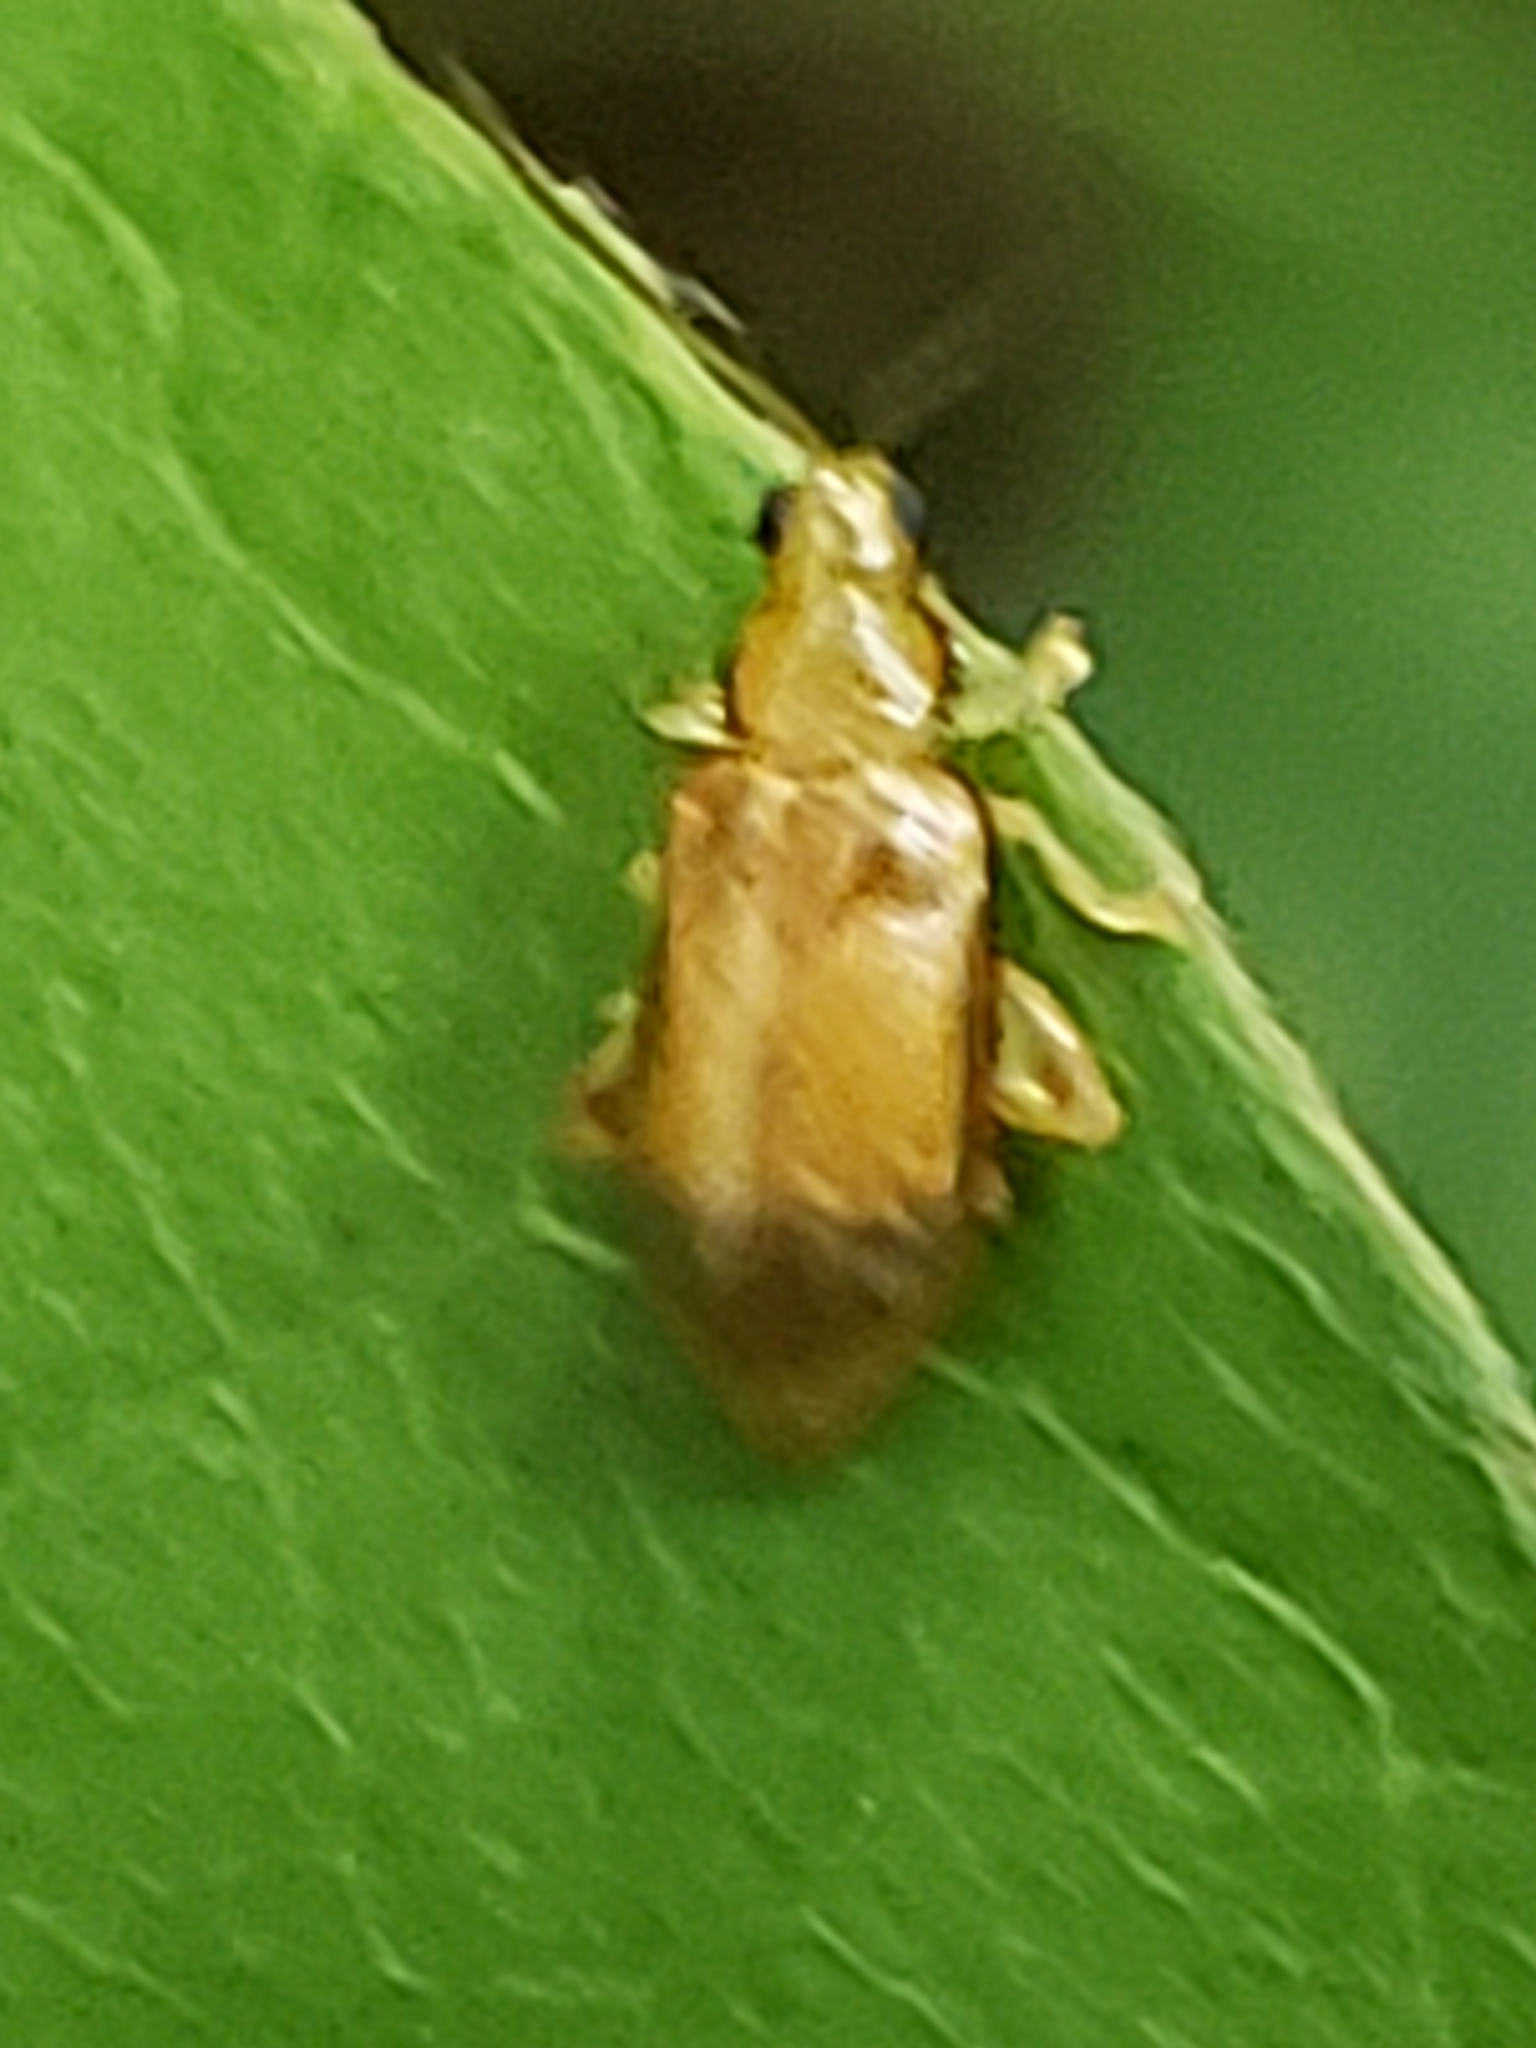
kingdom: Animalia
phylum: Arthropoda
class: Insecta
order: Coleoptera
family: Chrysomelidae
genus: Systena
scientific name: Systena marginalis
